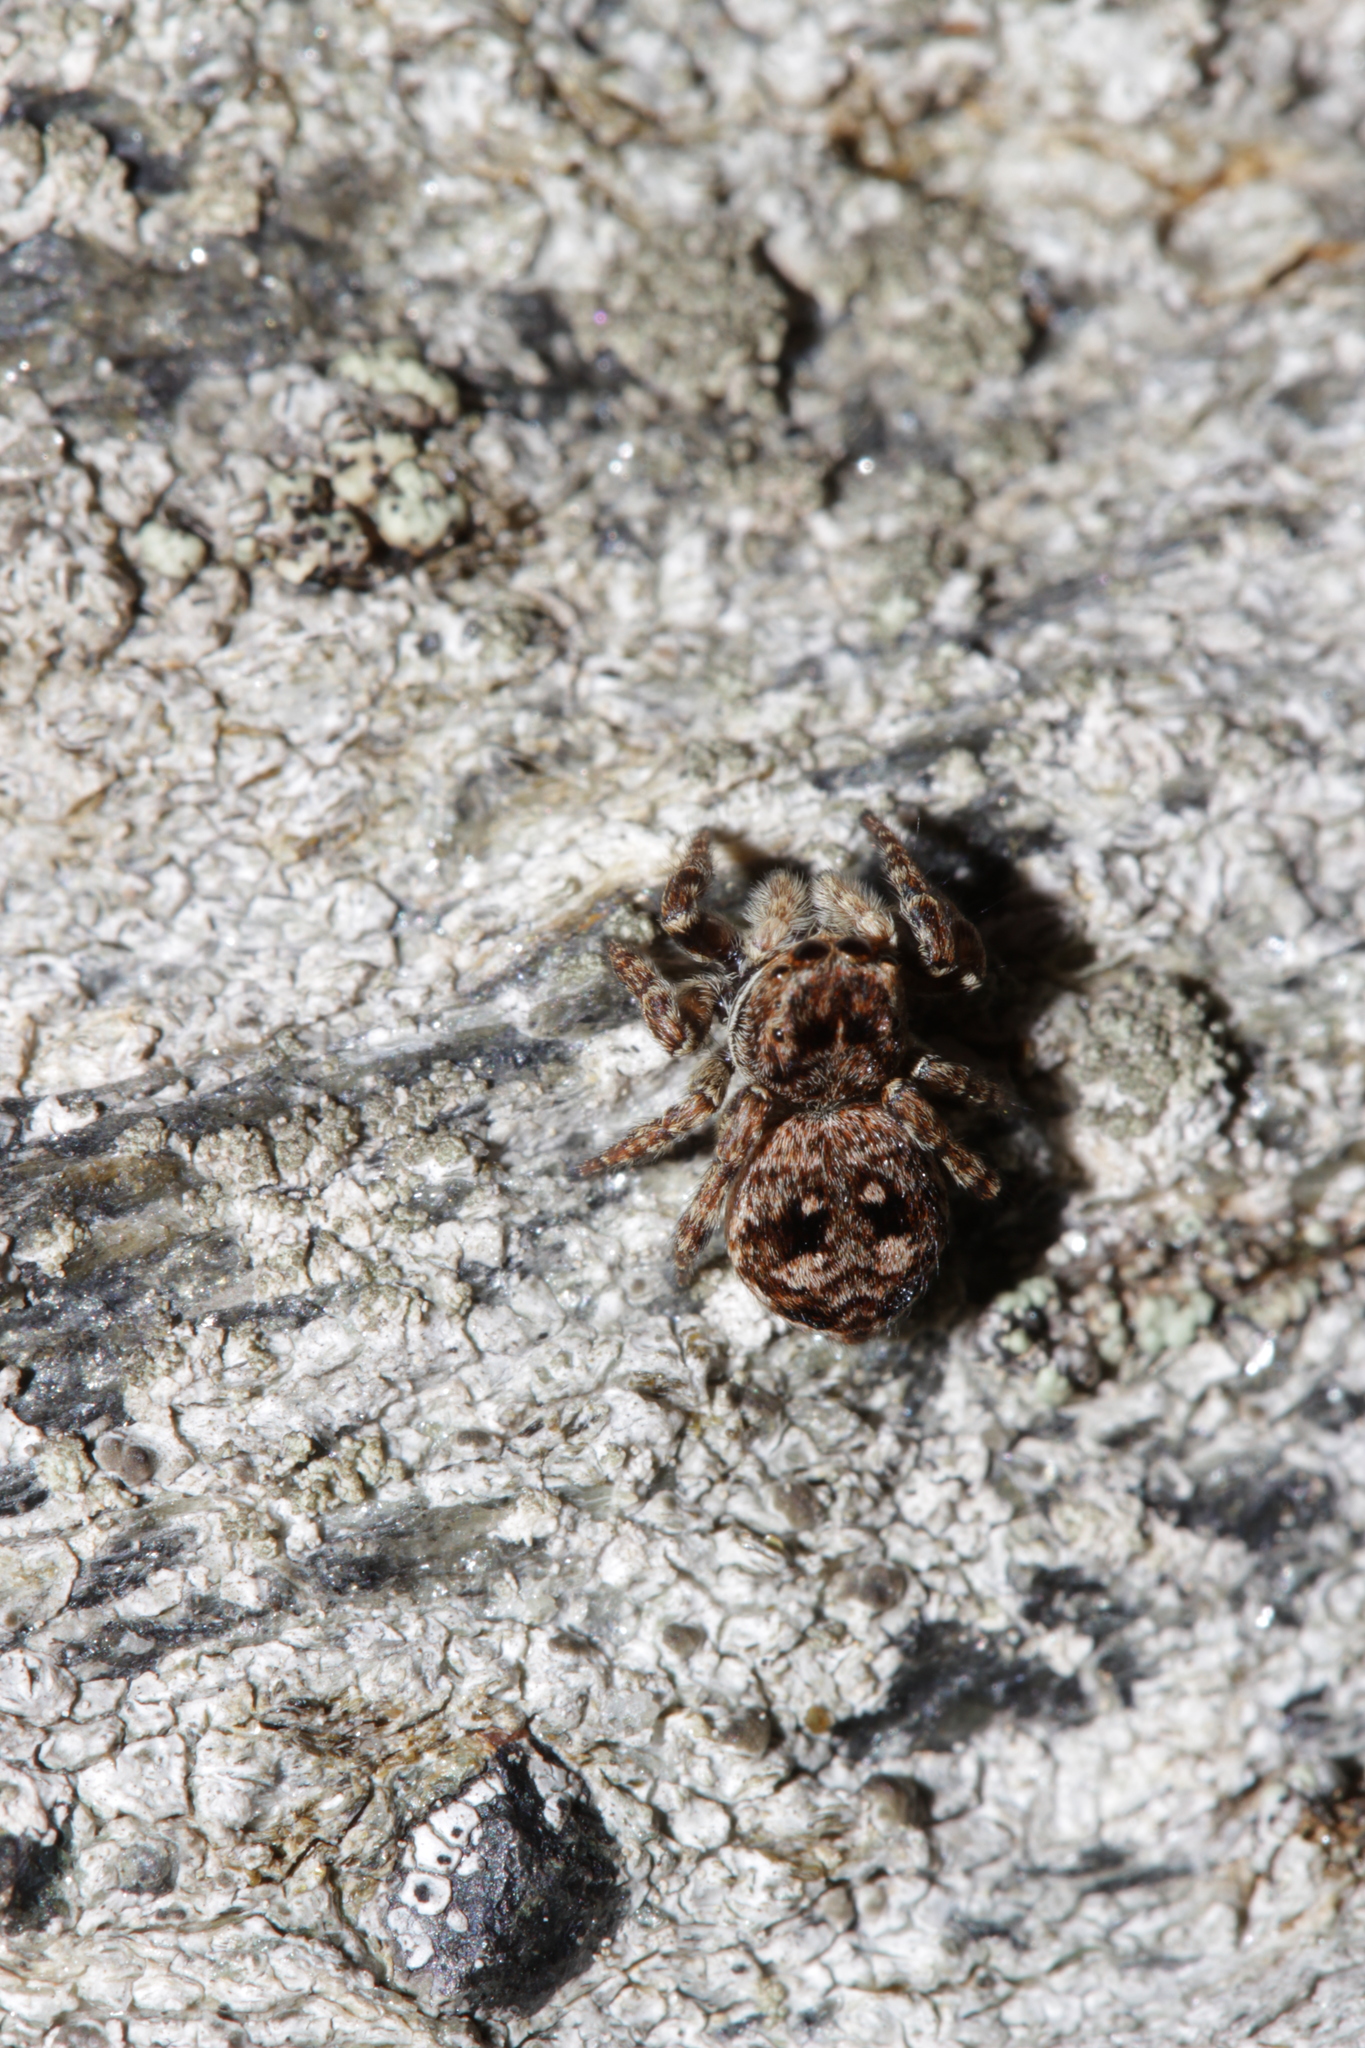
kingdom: Animalia
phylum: Arthropoda
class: Arachnida
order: Araneae
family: Salticidae
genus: Attulus
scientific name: Attulus rupicola
